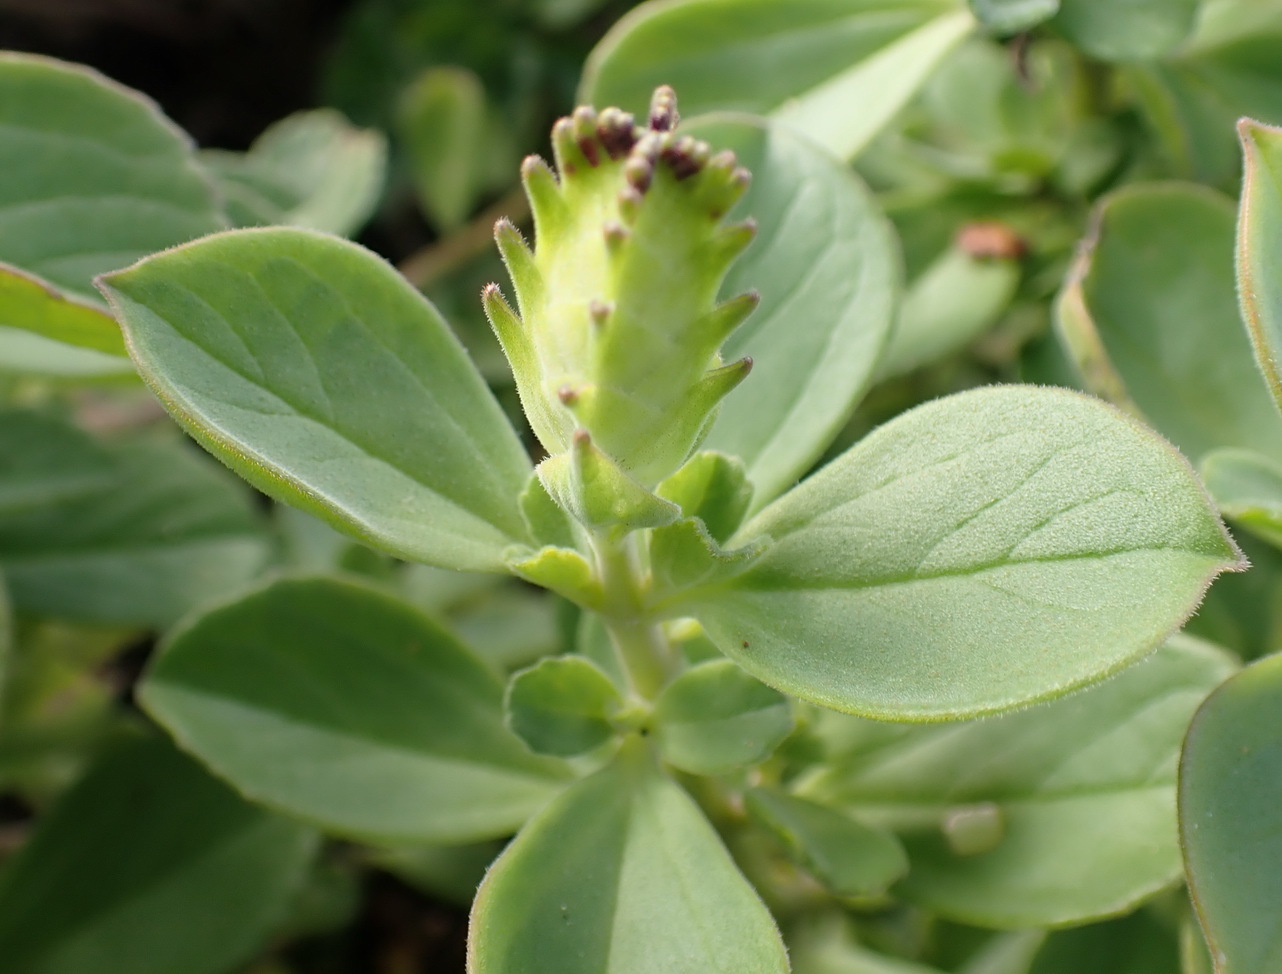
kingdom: Plantae
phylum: Tracheophyta
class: Magnoliopsida
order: Lamiales
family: Lamiaceae
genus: Coleus
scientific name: Coleus neochilus
